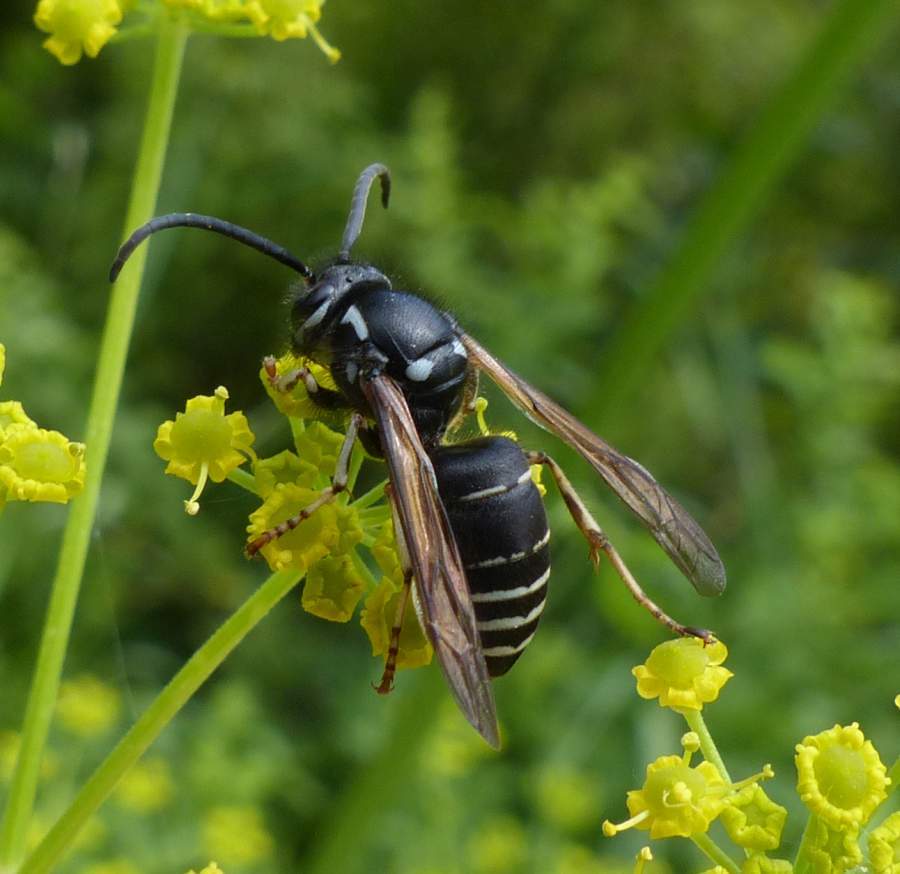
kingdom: Animalia
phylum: Arthropoda
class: Insecta
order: Hymenoptera
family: Vespidae
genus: Dolichovespula
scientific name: Dolichovespula adulterina
